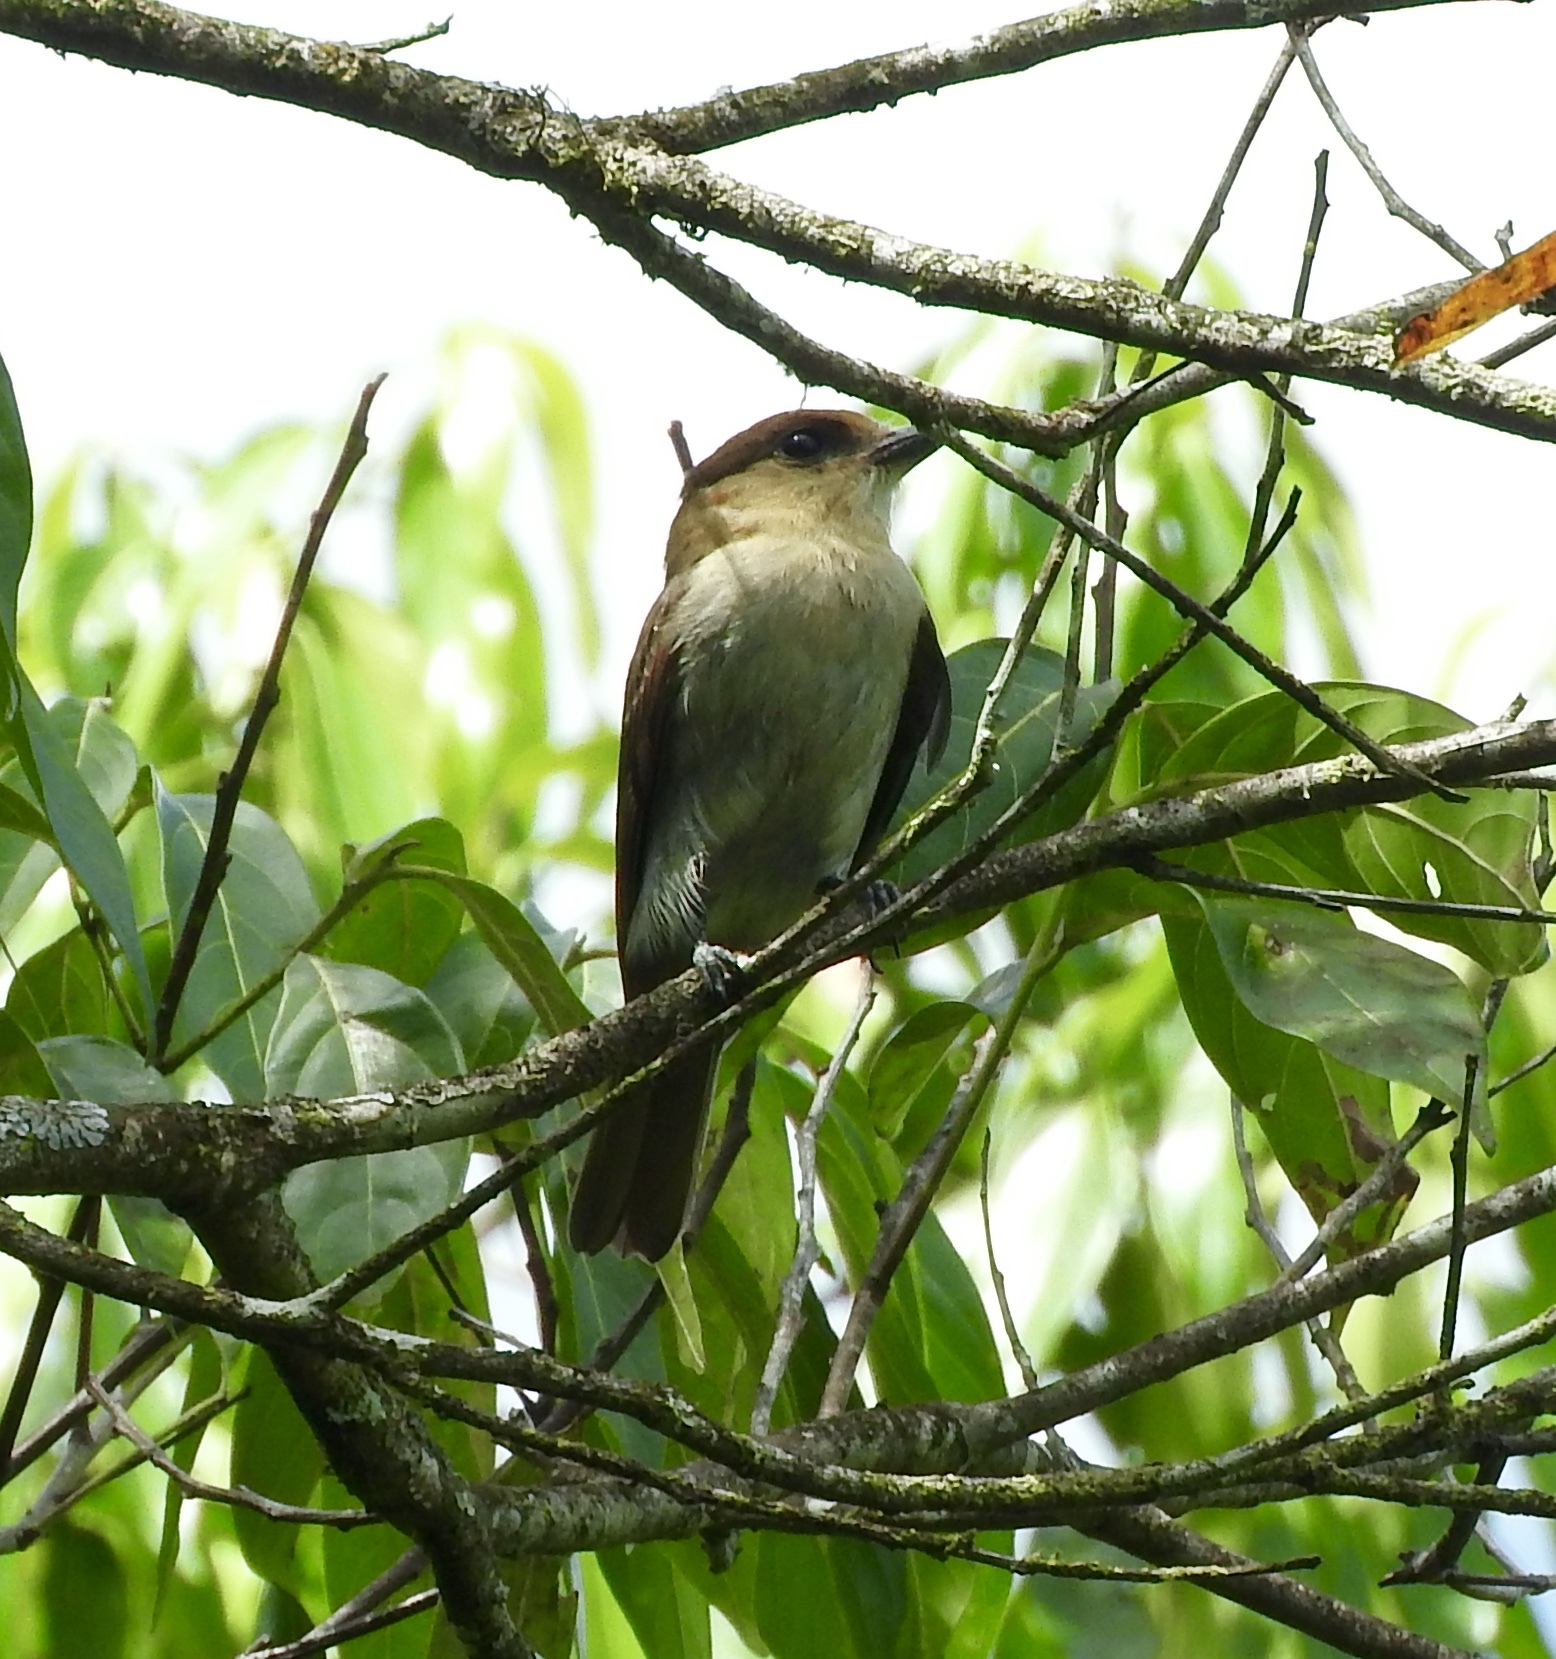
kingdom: Animalia
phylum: Chordata
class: Aves
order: Passeriformes
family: Cotingidae
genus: Pachyramphus
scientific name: Pachyramphus niger
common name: Jamaican becard
